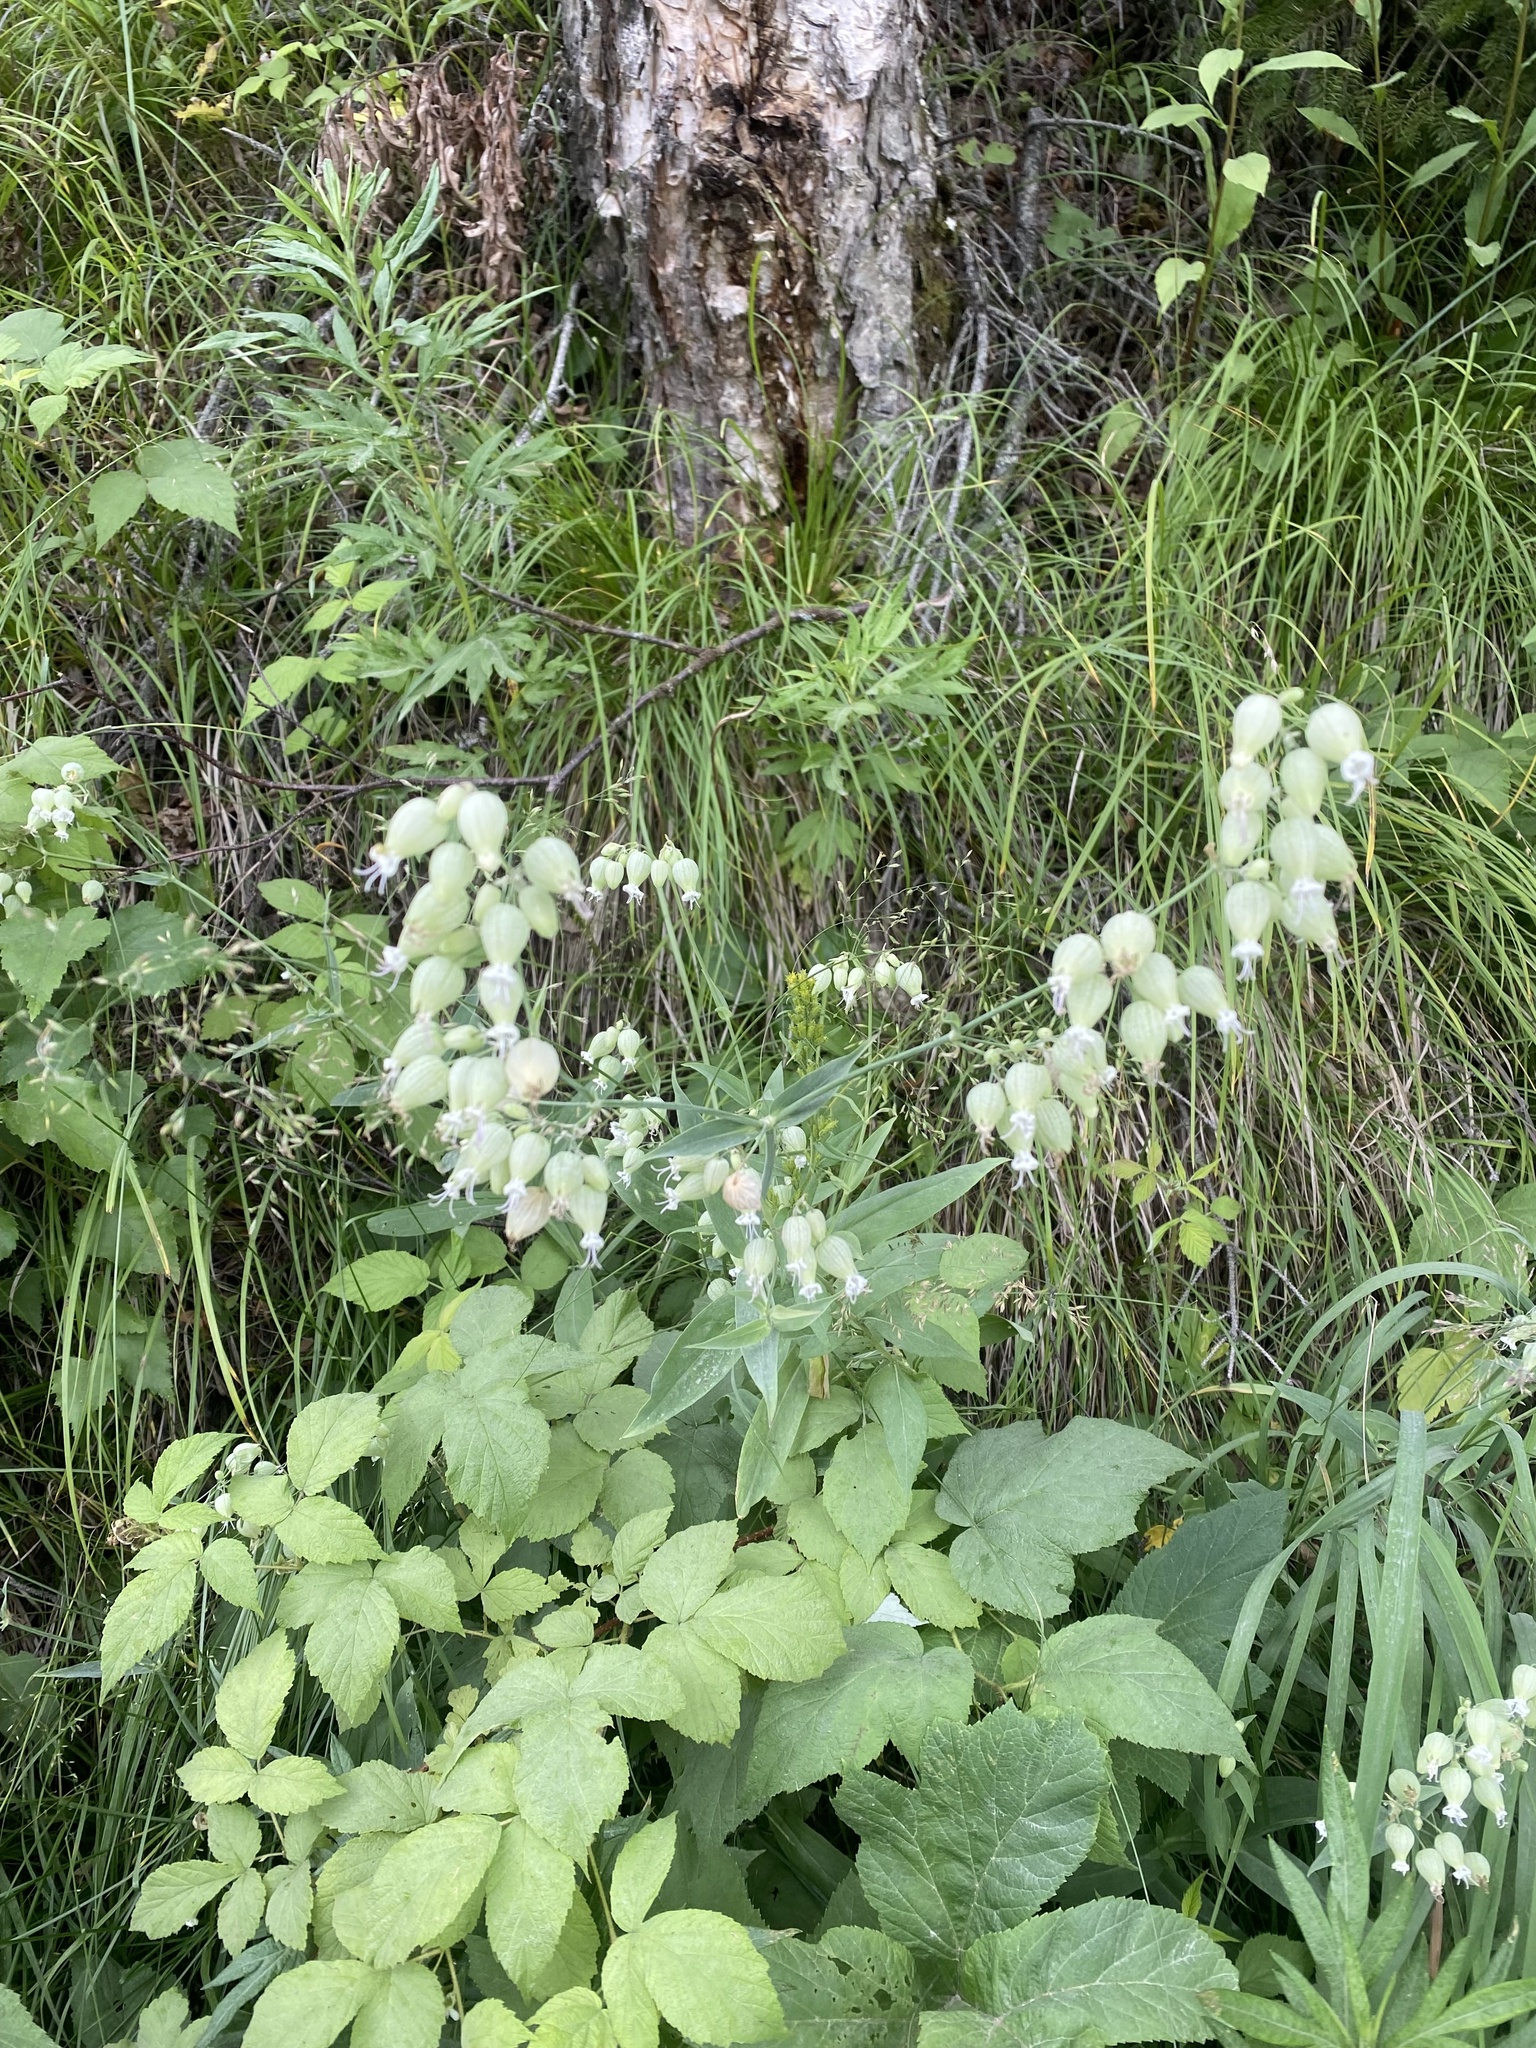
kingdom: Plantae
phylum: Tracheophyta
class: Magnoliopsida
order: Caryophyllales
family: Caryophyllaceae
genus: Silene
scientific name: Silene vulgaris
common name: Bladder campion
